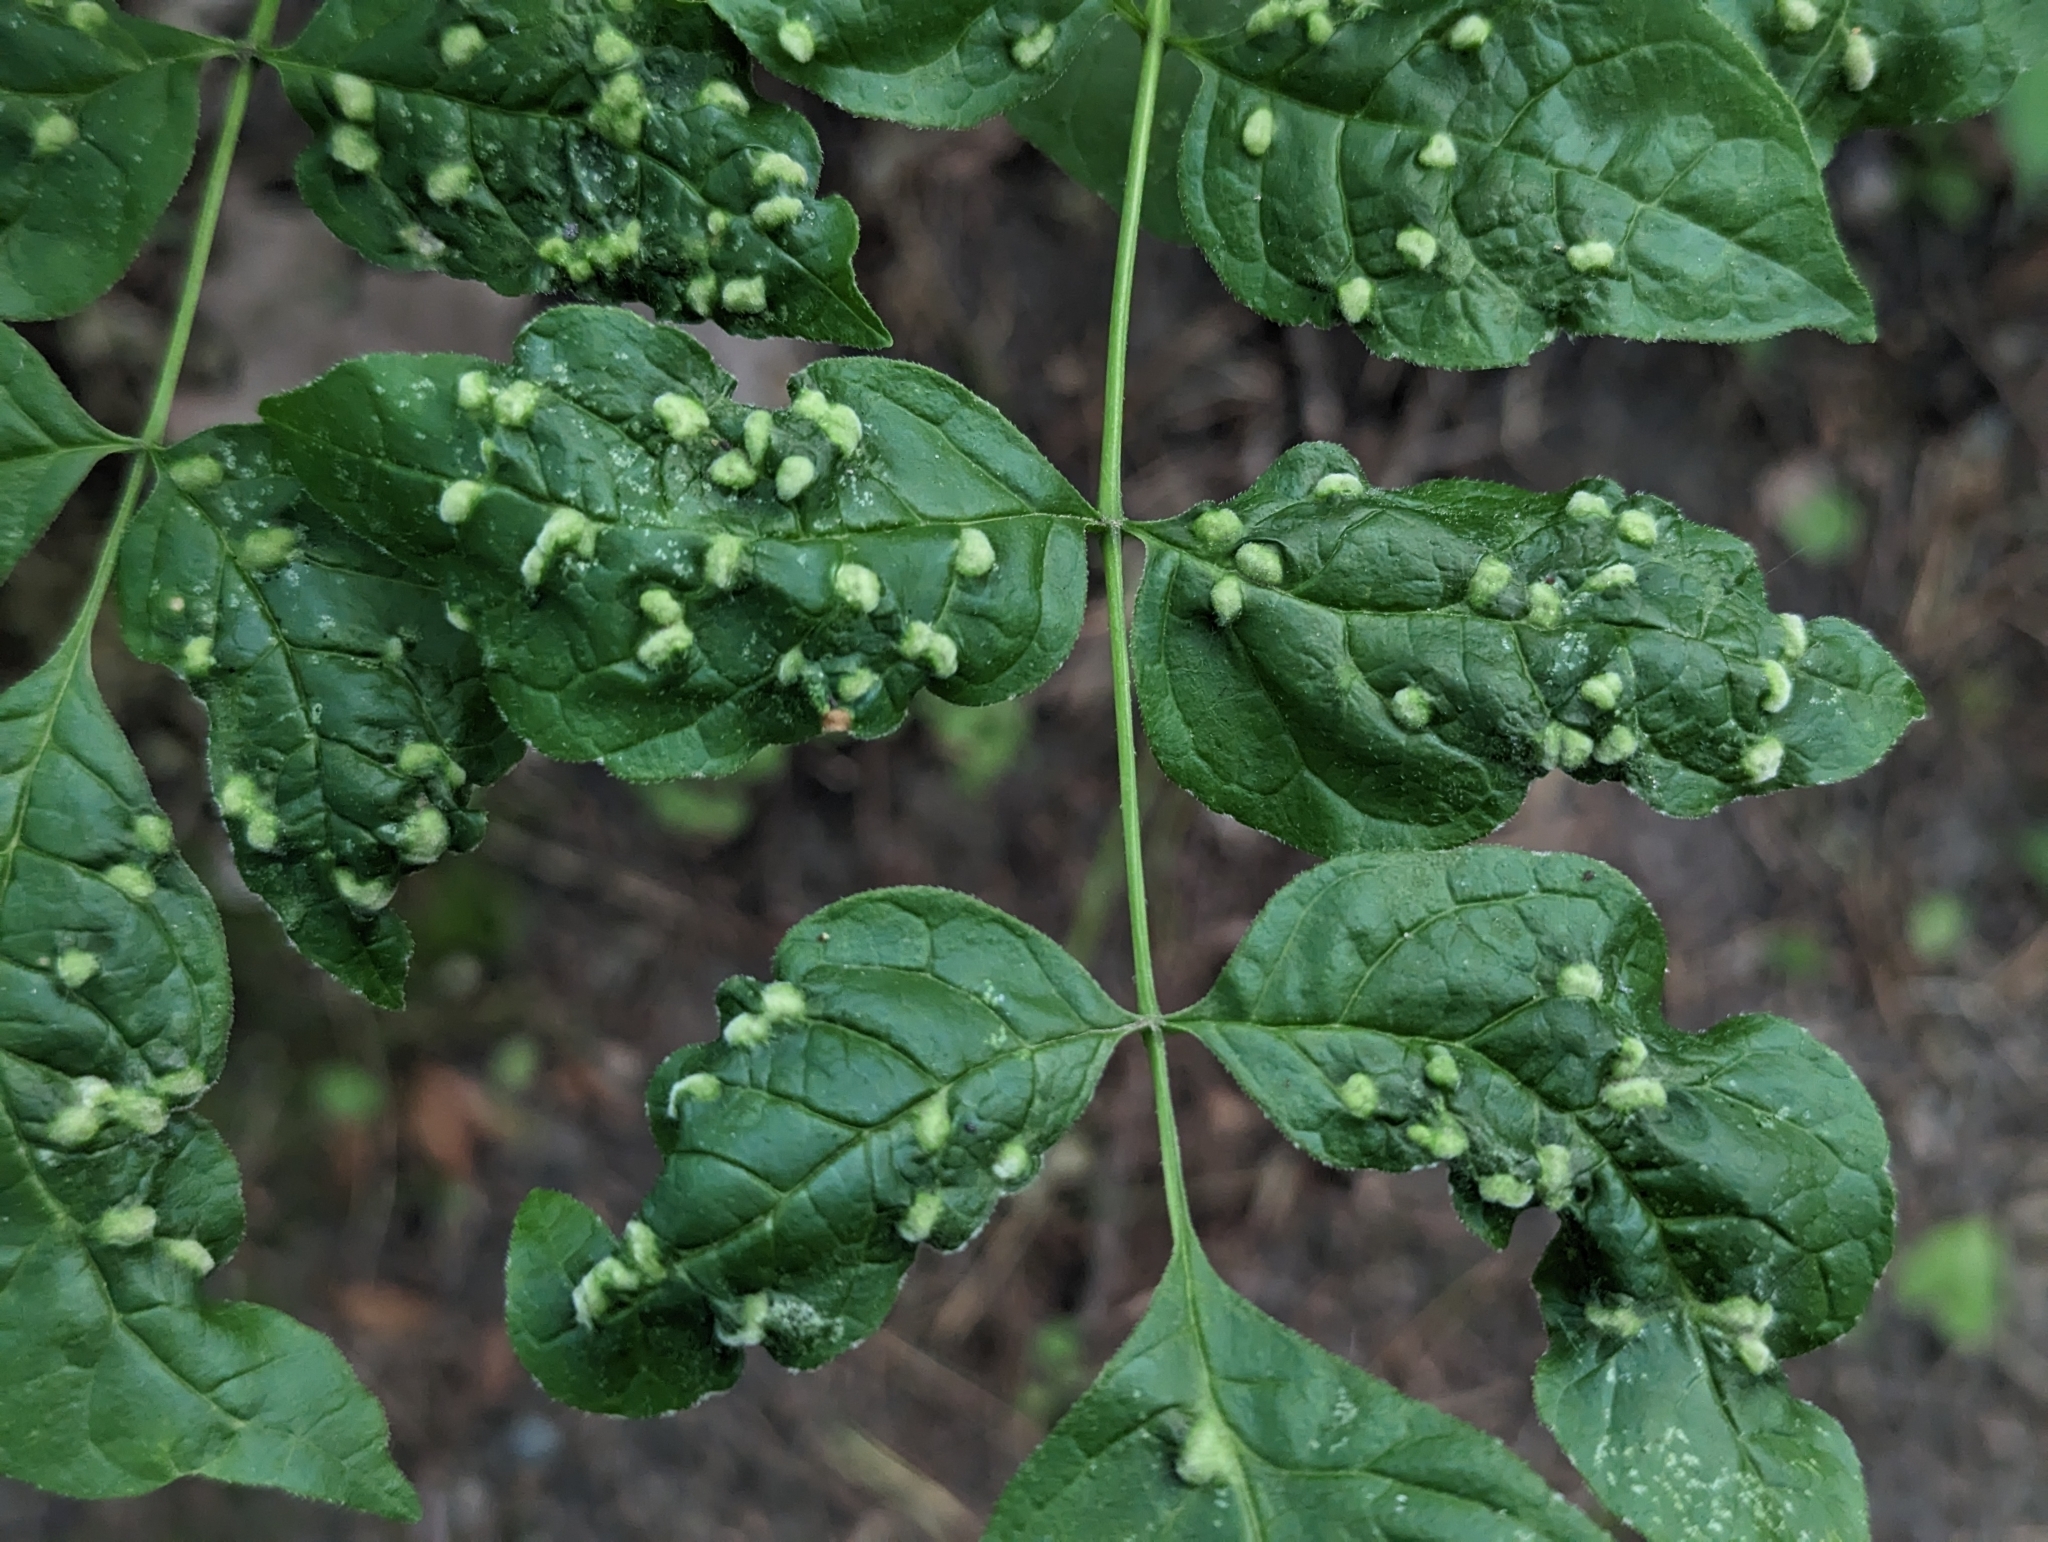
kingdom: Animalia
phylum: Arthropoda
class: Arachnida
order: Trombidiformes
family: Eriophyidae
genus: Aceria
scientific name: Aceria fraxinicola
